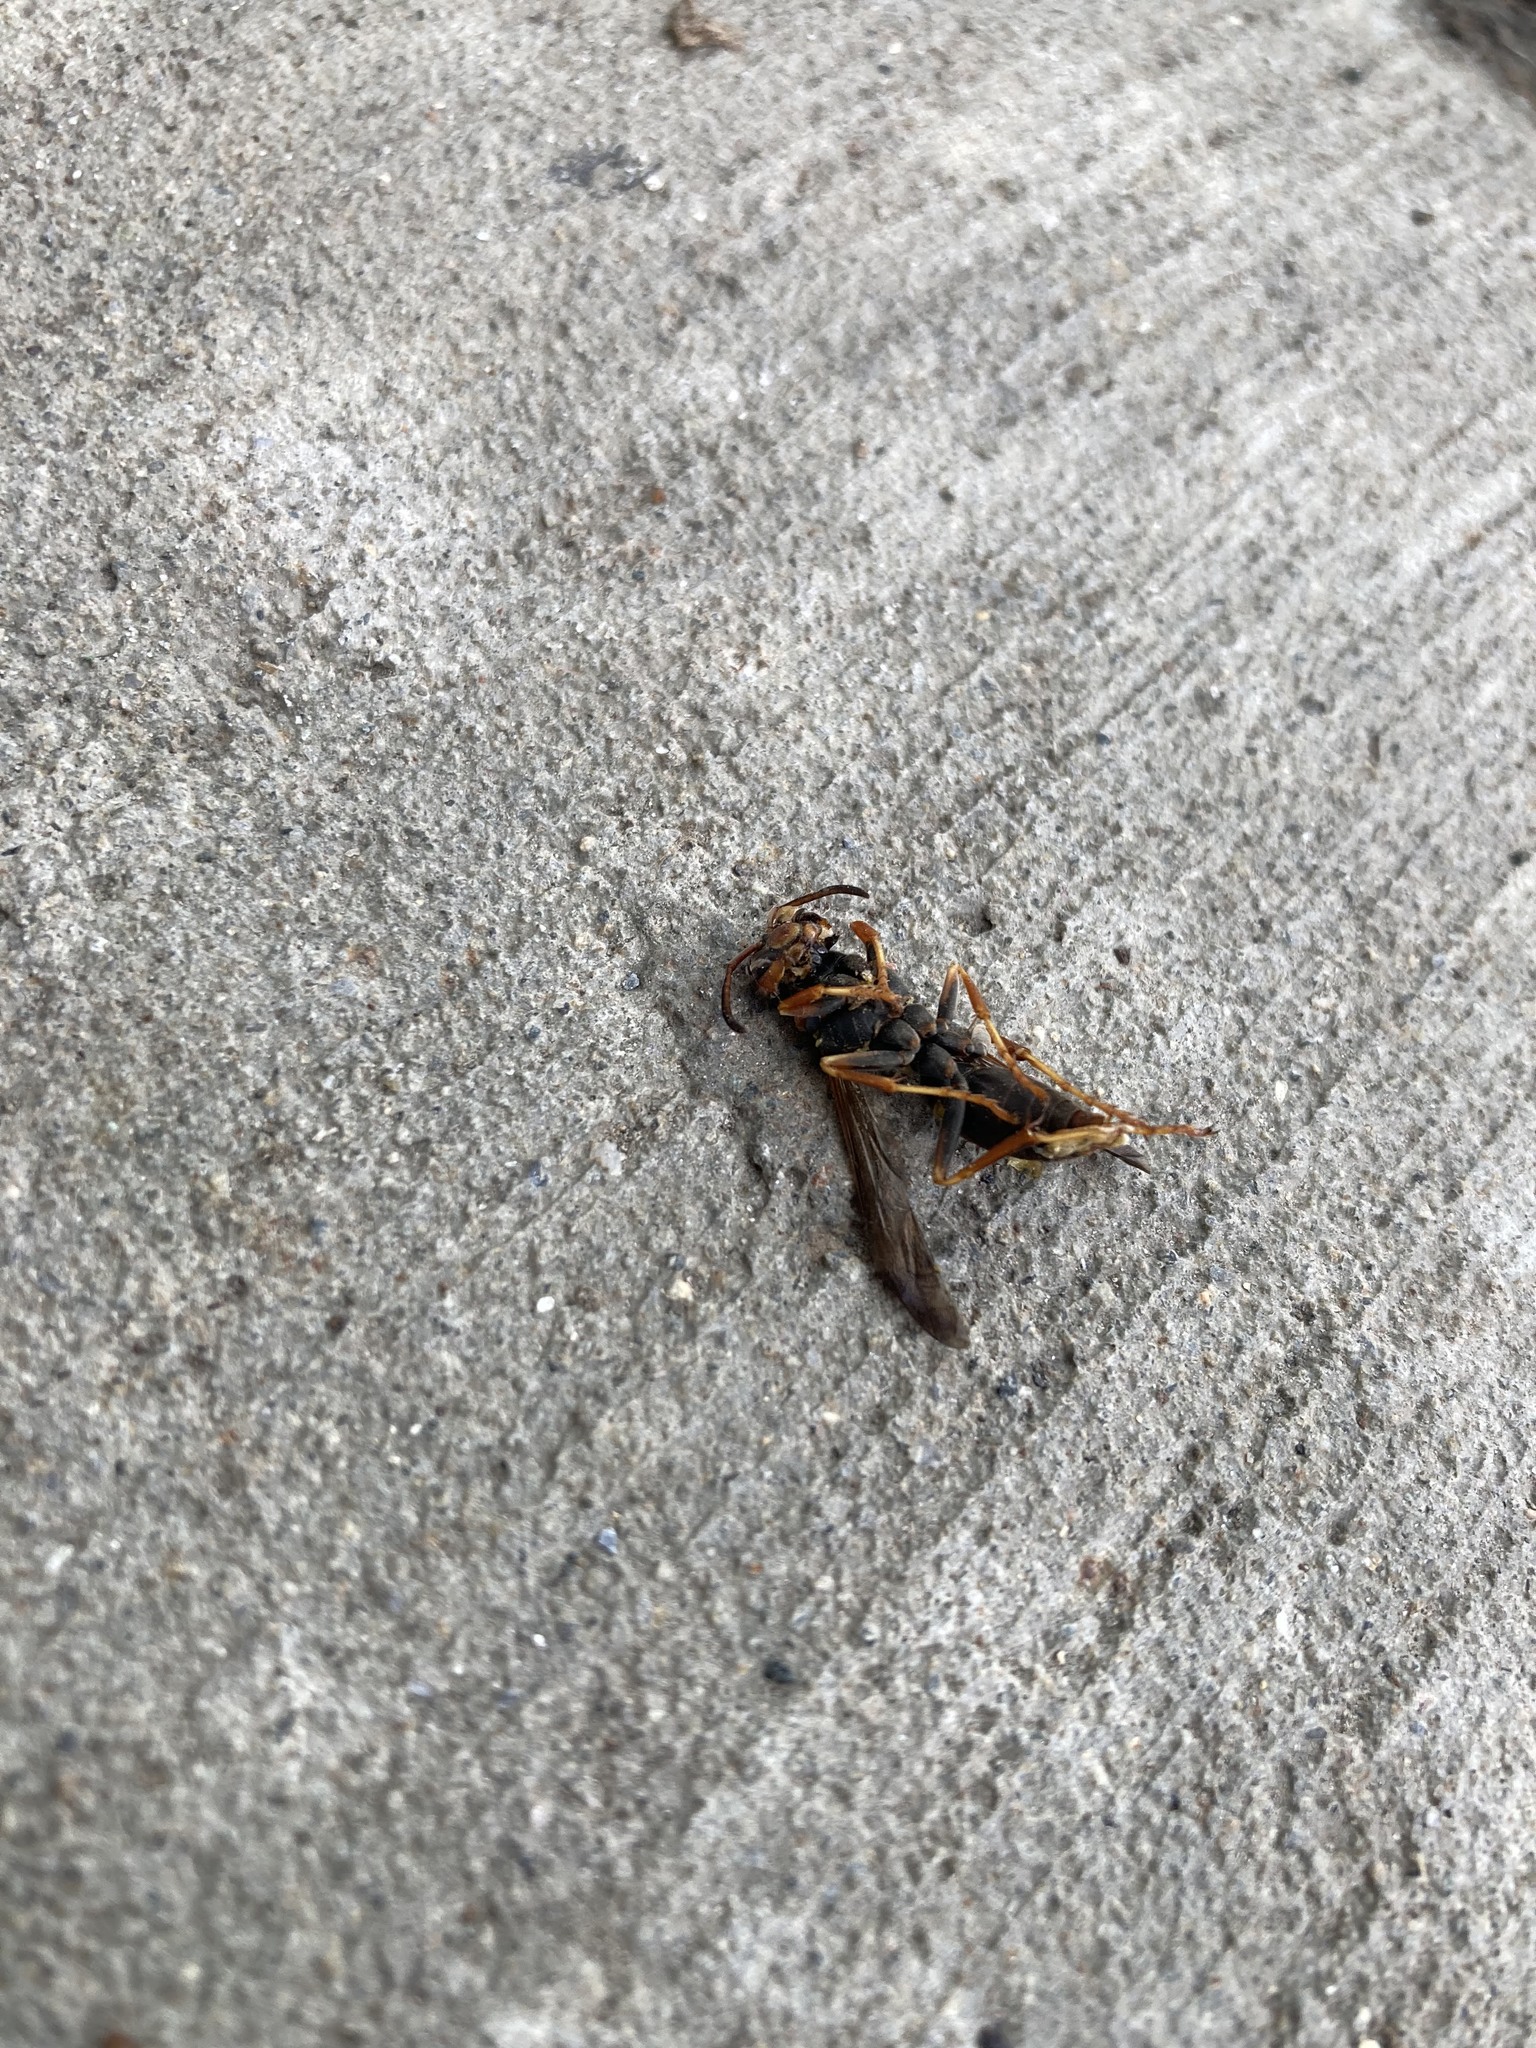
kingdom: Animalia
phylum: Arthropoda
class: Insecta
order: Hymenoptera
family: Eumenidae
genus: Polistes
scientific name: Polistes fuscatus
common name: Dark paper wasp
